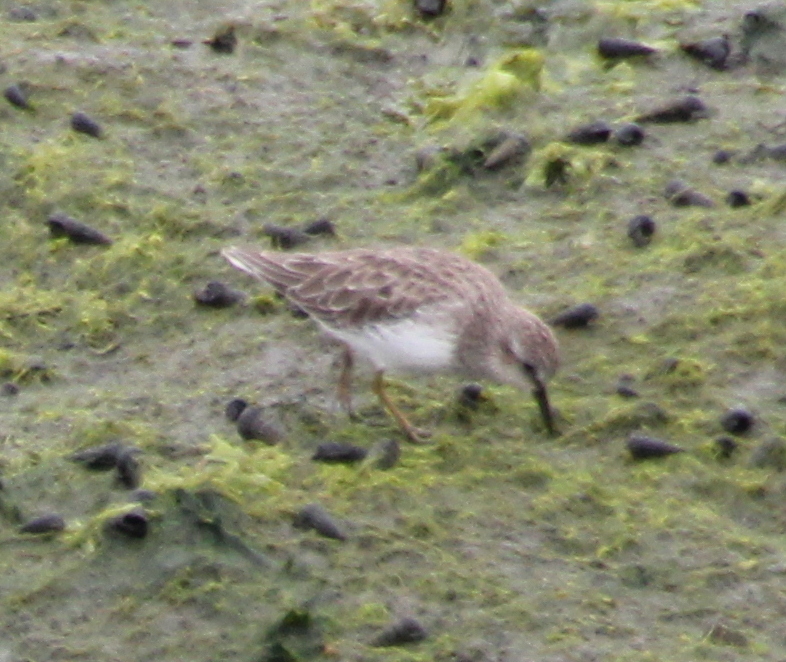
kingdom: Animalia
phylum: Chordata
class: Aves
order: Charadriiformes
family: Scolopacidae
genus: Calidris
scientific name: Calidris minutilla
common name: Least sandpiper
